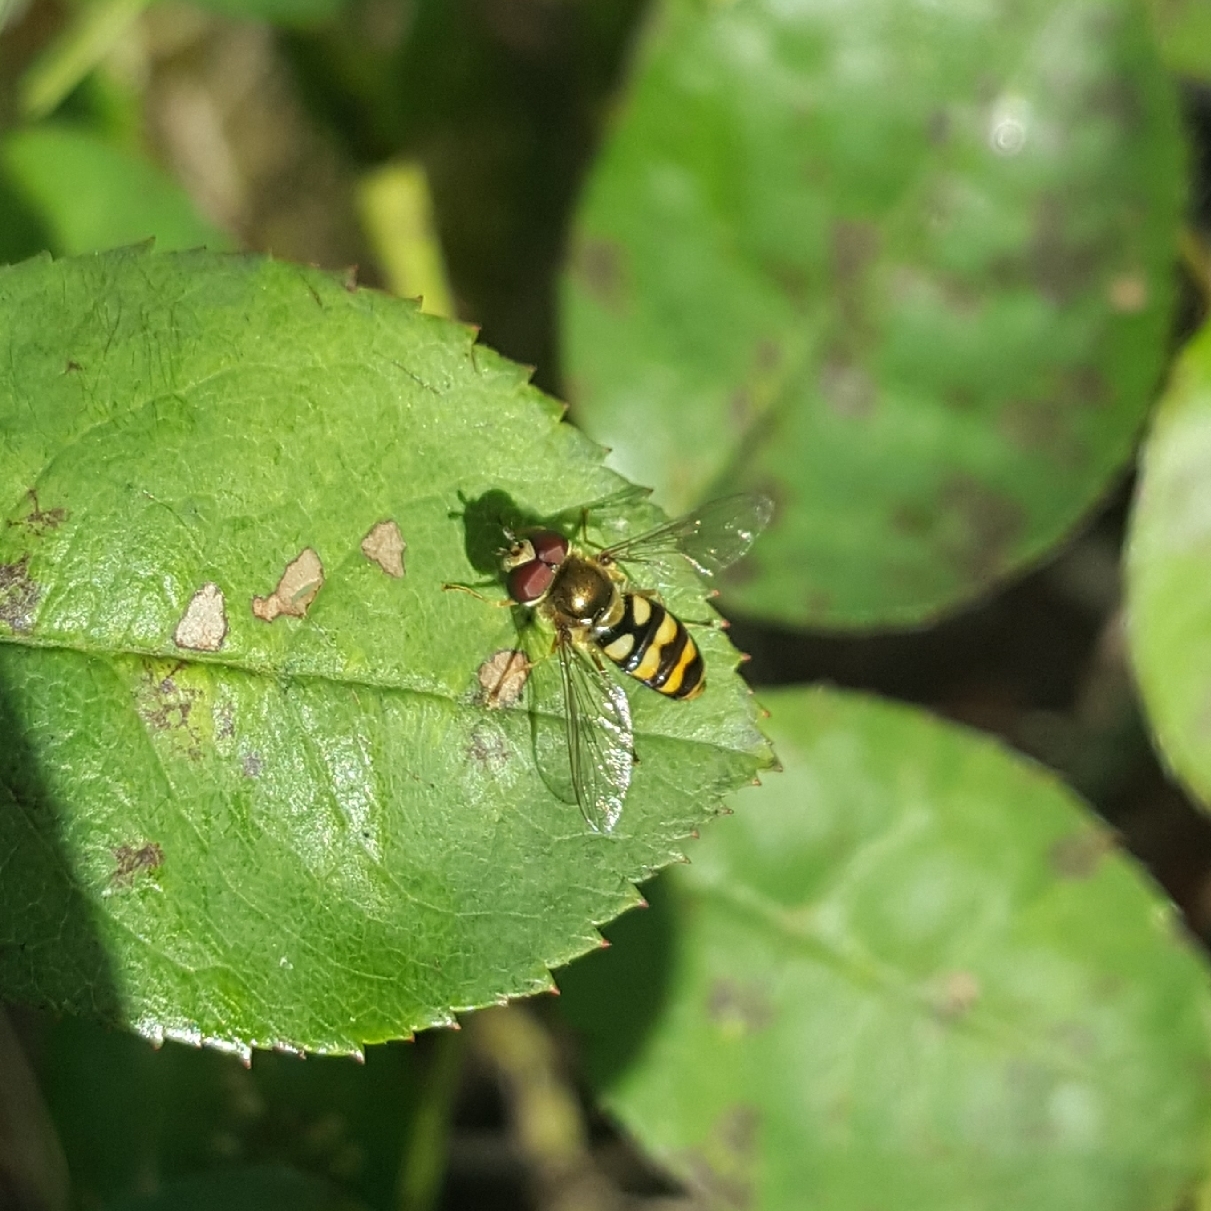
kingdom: Animalia
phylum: Arthropoda
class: Insecta
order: Diptera
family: Syrphidae
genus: Eupeodes
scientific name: Eupeodes fumipennis
